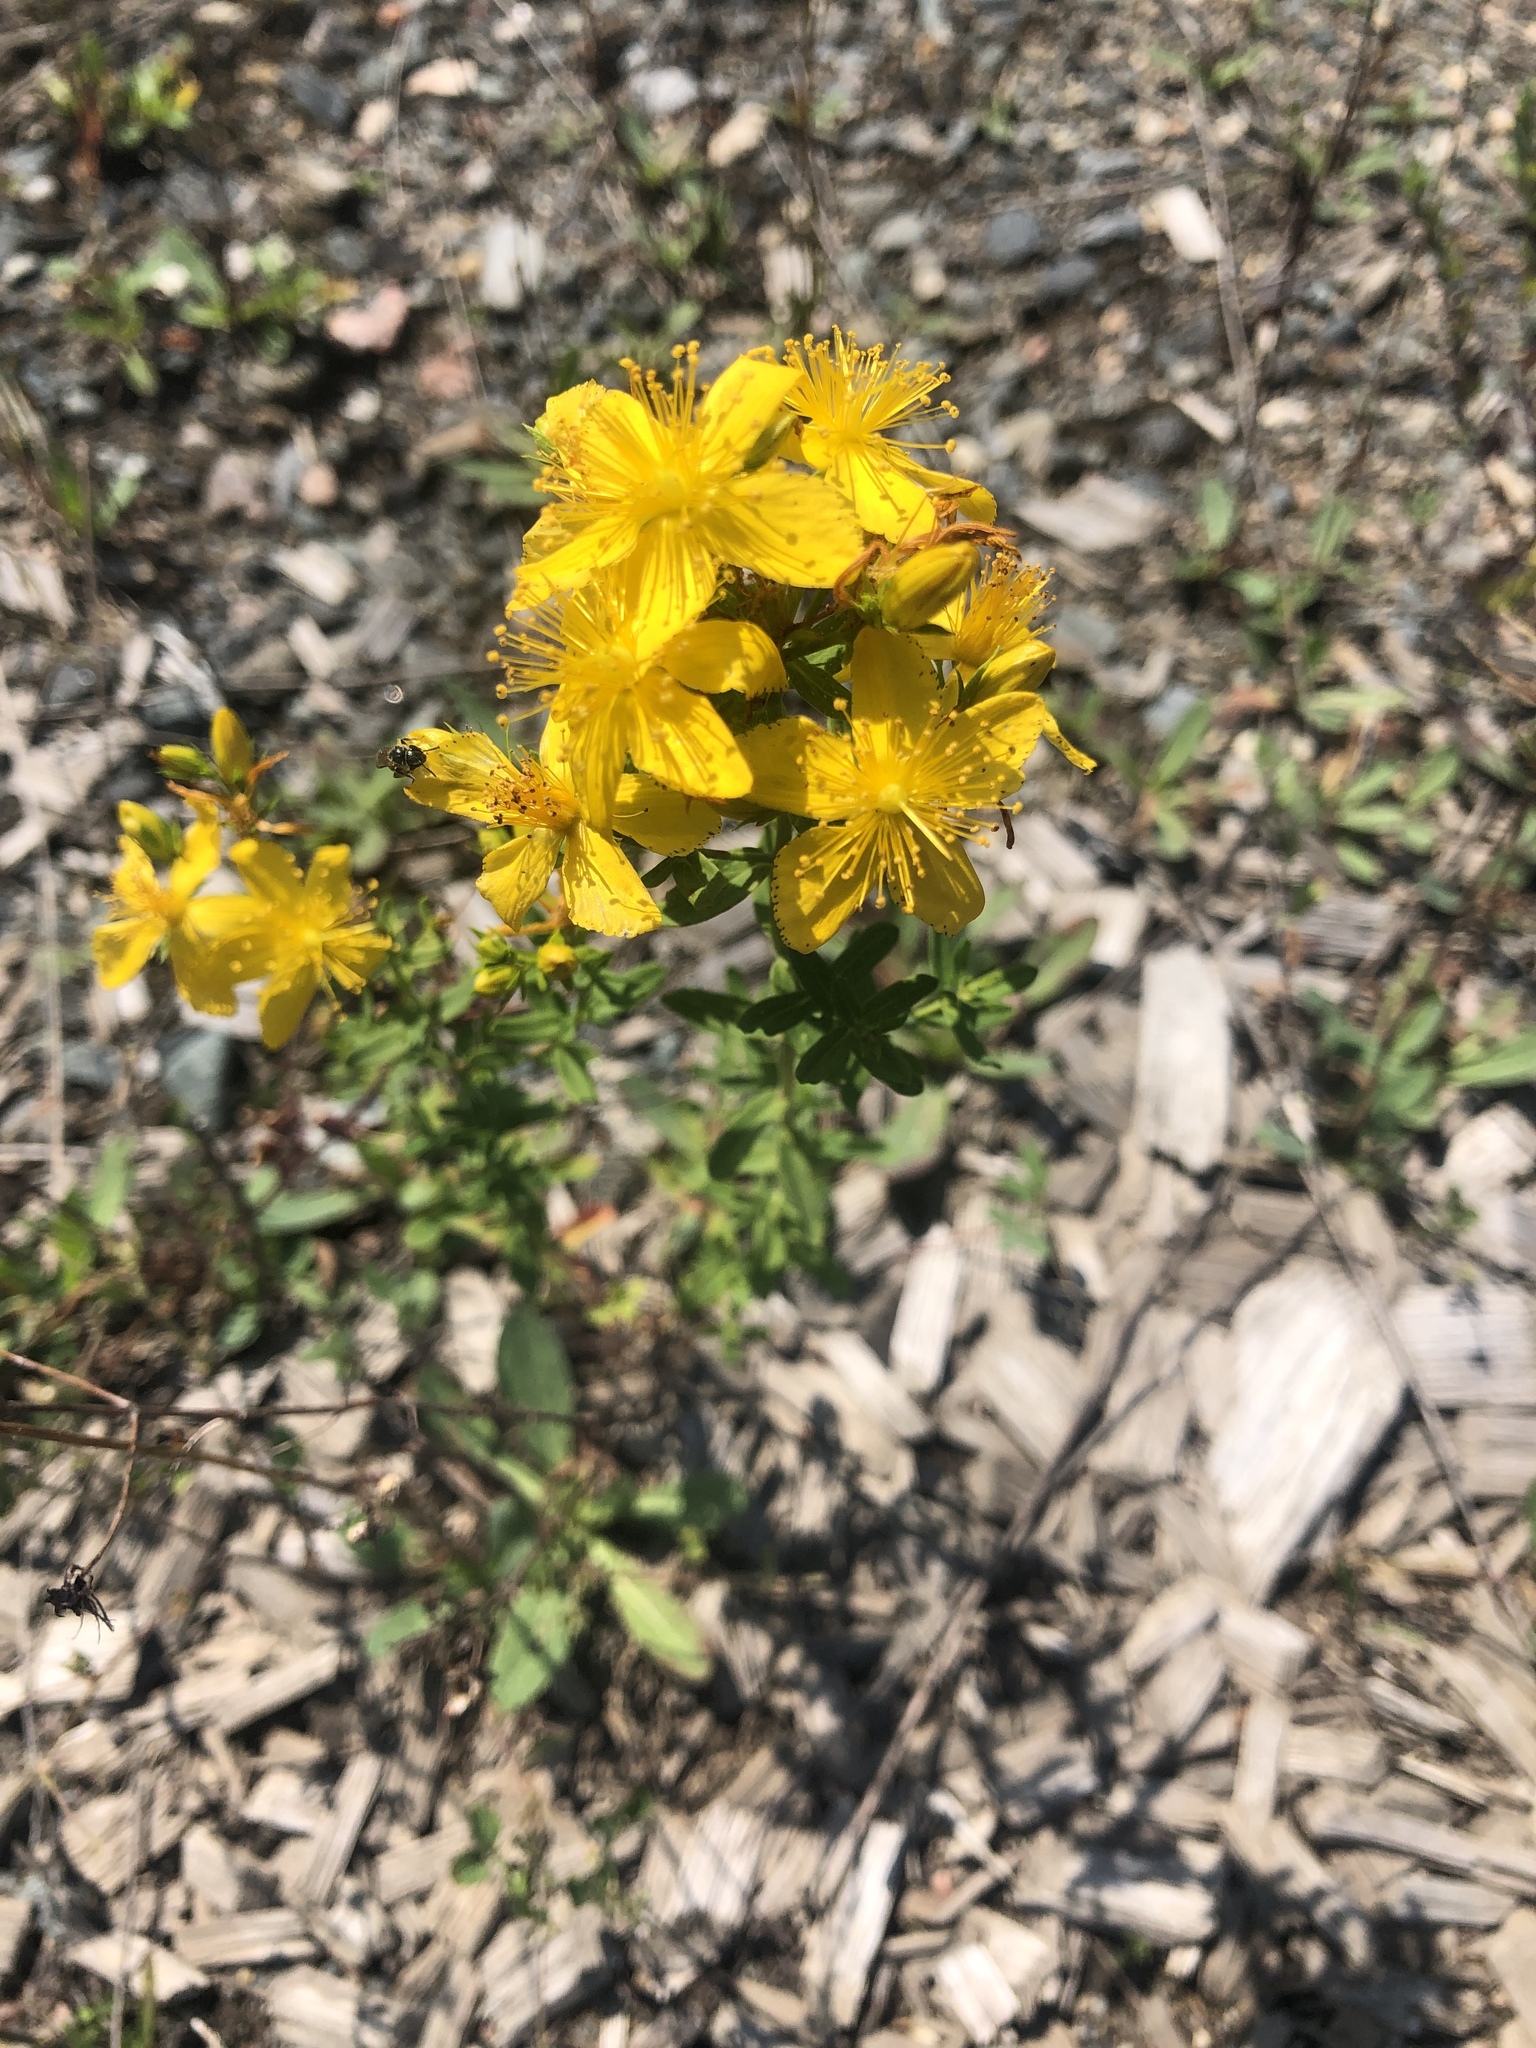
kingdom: Plantae
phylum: Tracheophyta
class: Magnoliopsida
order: Malpighiales
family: Hypericaceae
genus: Hypericum
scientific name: Hypericum perforatum
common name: Common st. johnswort
